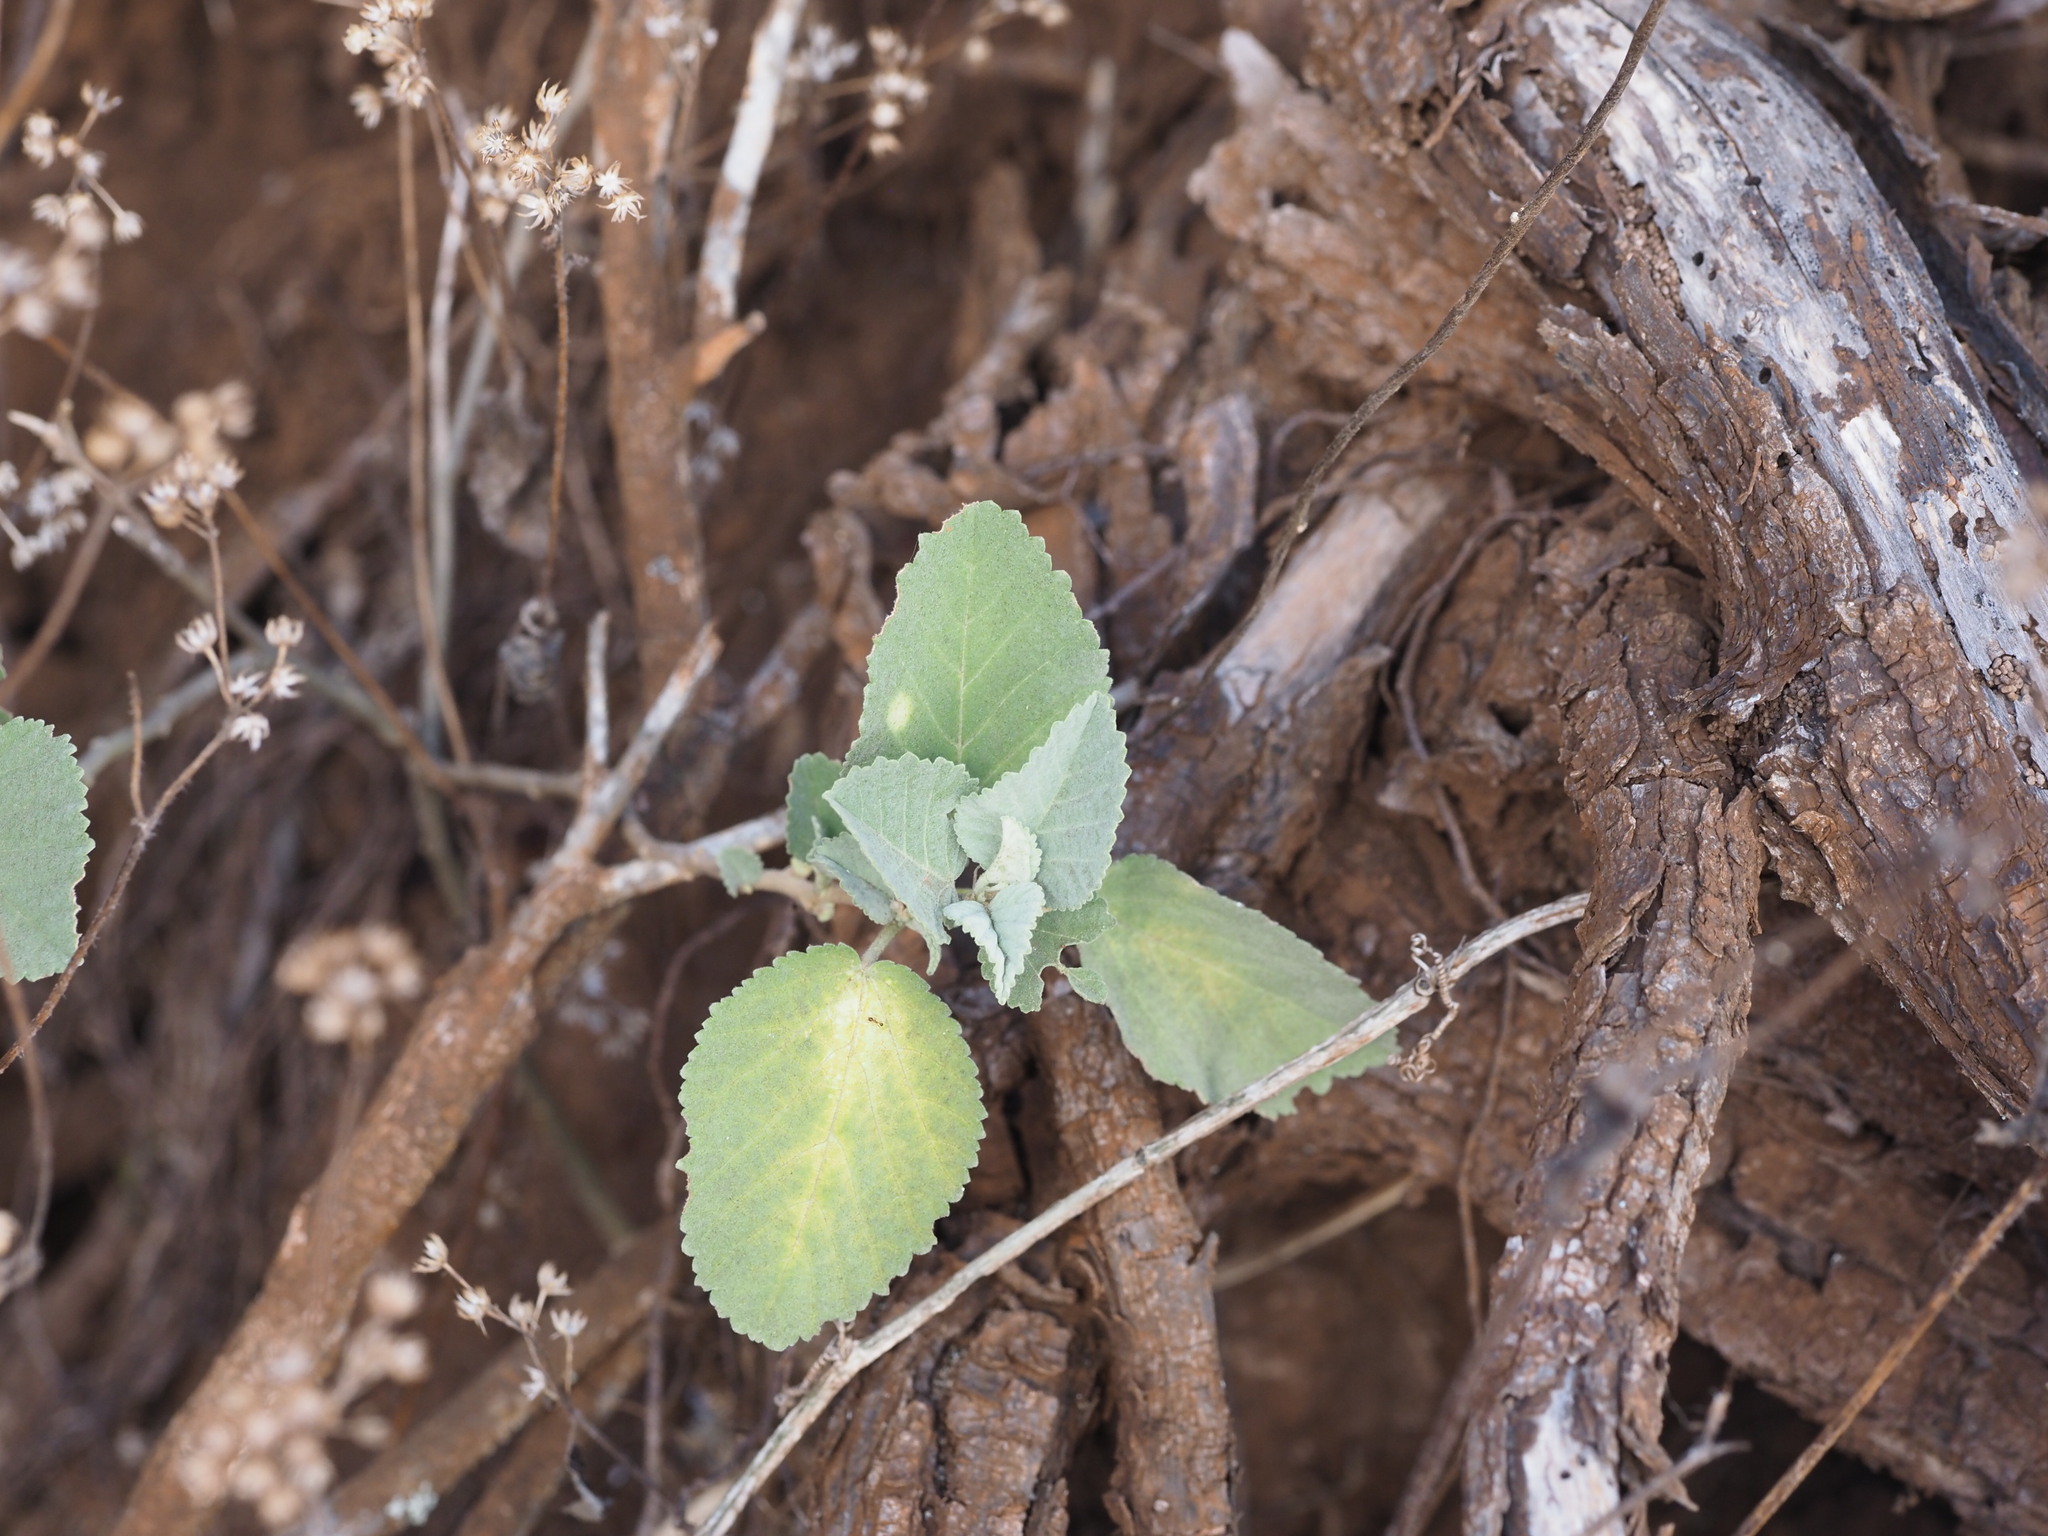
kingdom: Plantae
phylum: Tracheophyta
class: Magnoliopsida
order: Malvales
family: Malvaceae
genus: Sida
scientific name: Sida fallax
